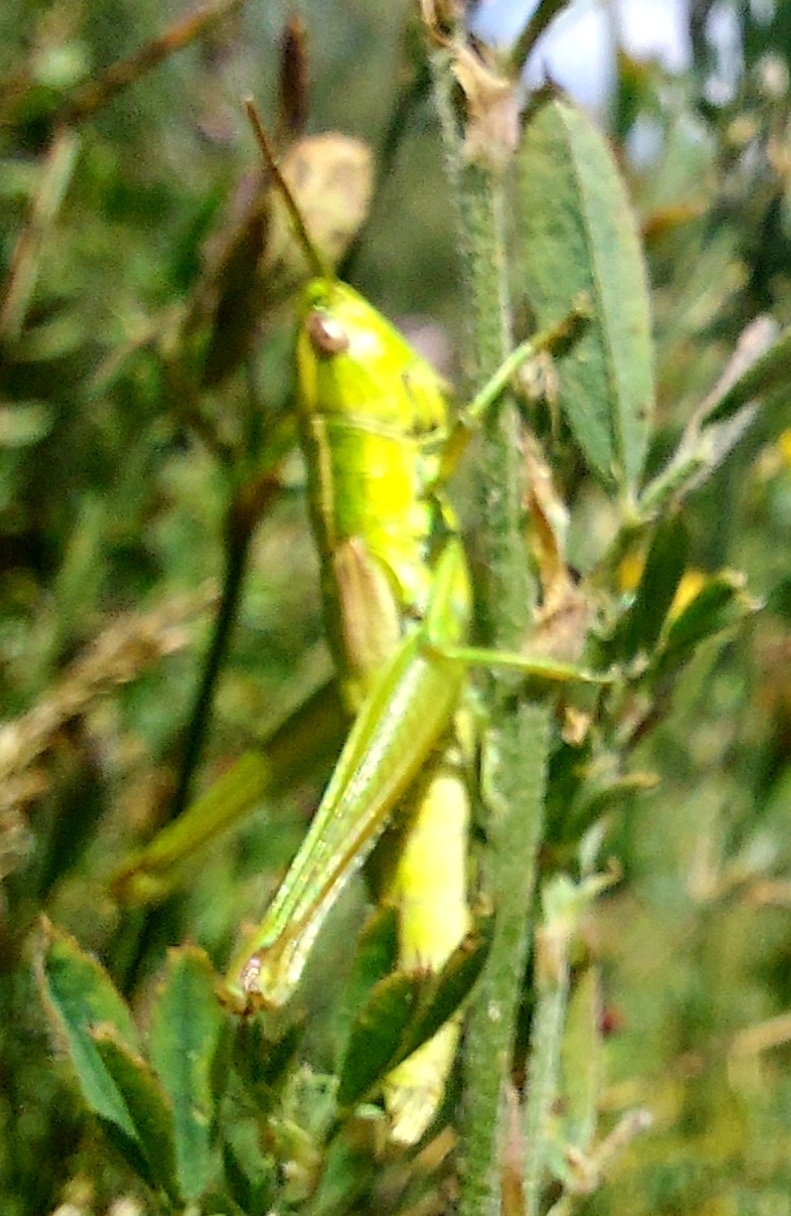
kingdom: Animalia
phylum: Arthropoda
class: Insecta
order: Orthoptera
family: Acrididae
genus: Euthystira
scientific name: Euthystira brachyptera
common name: Small gold grasshopper
